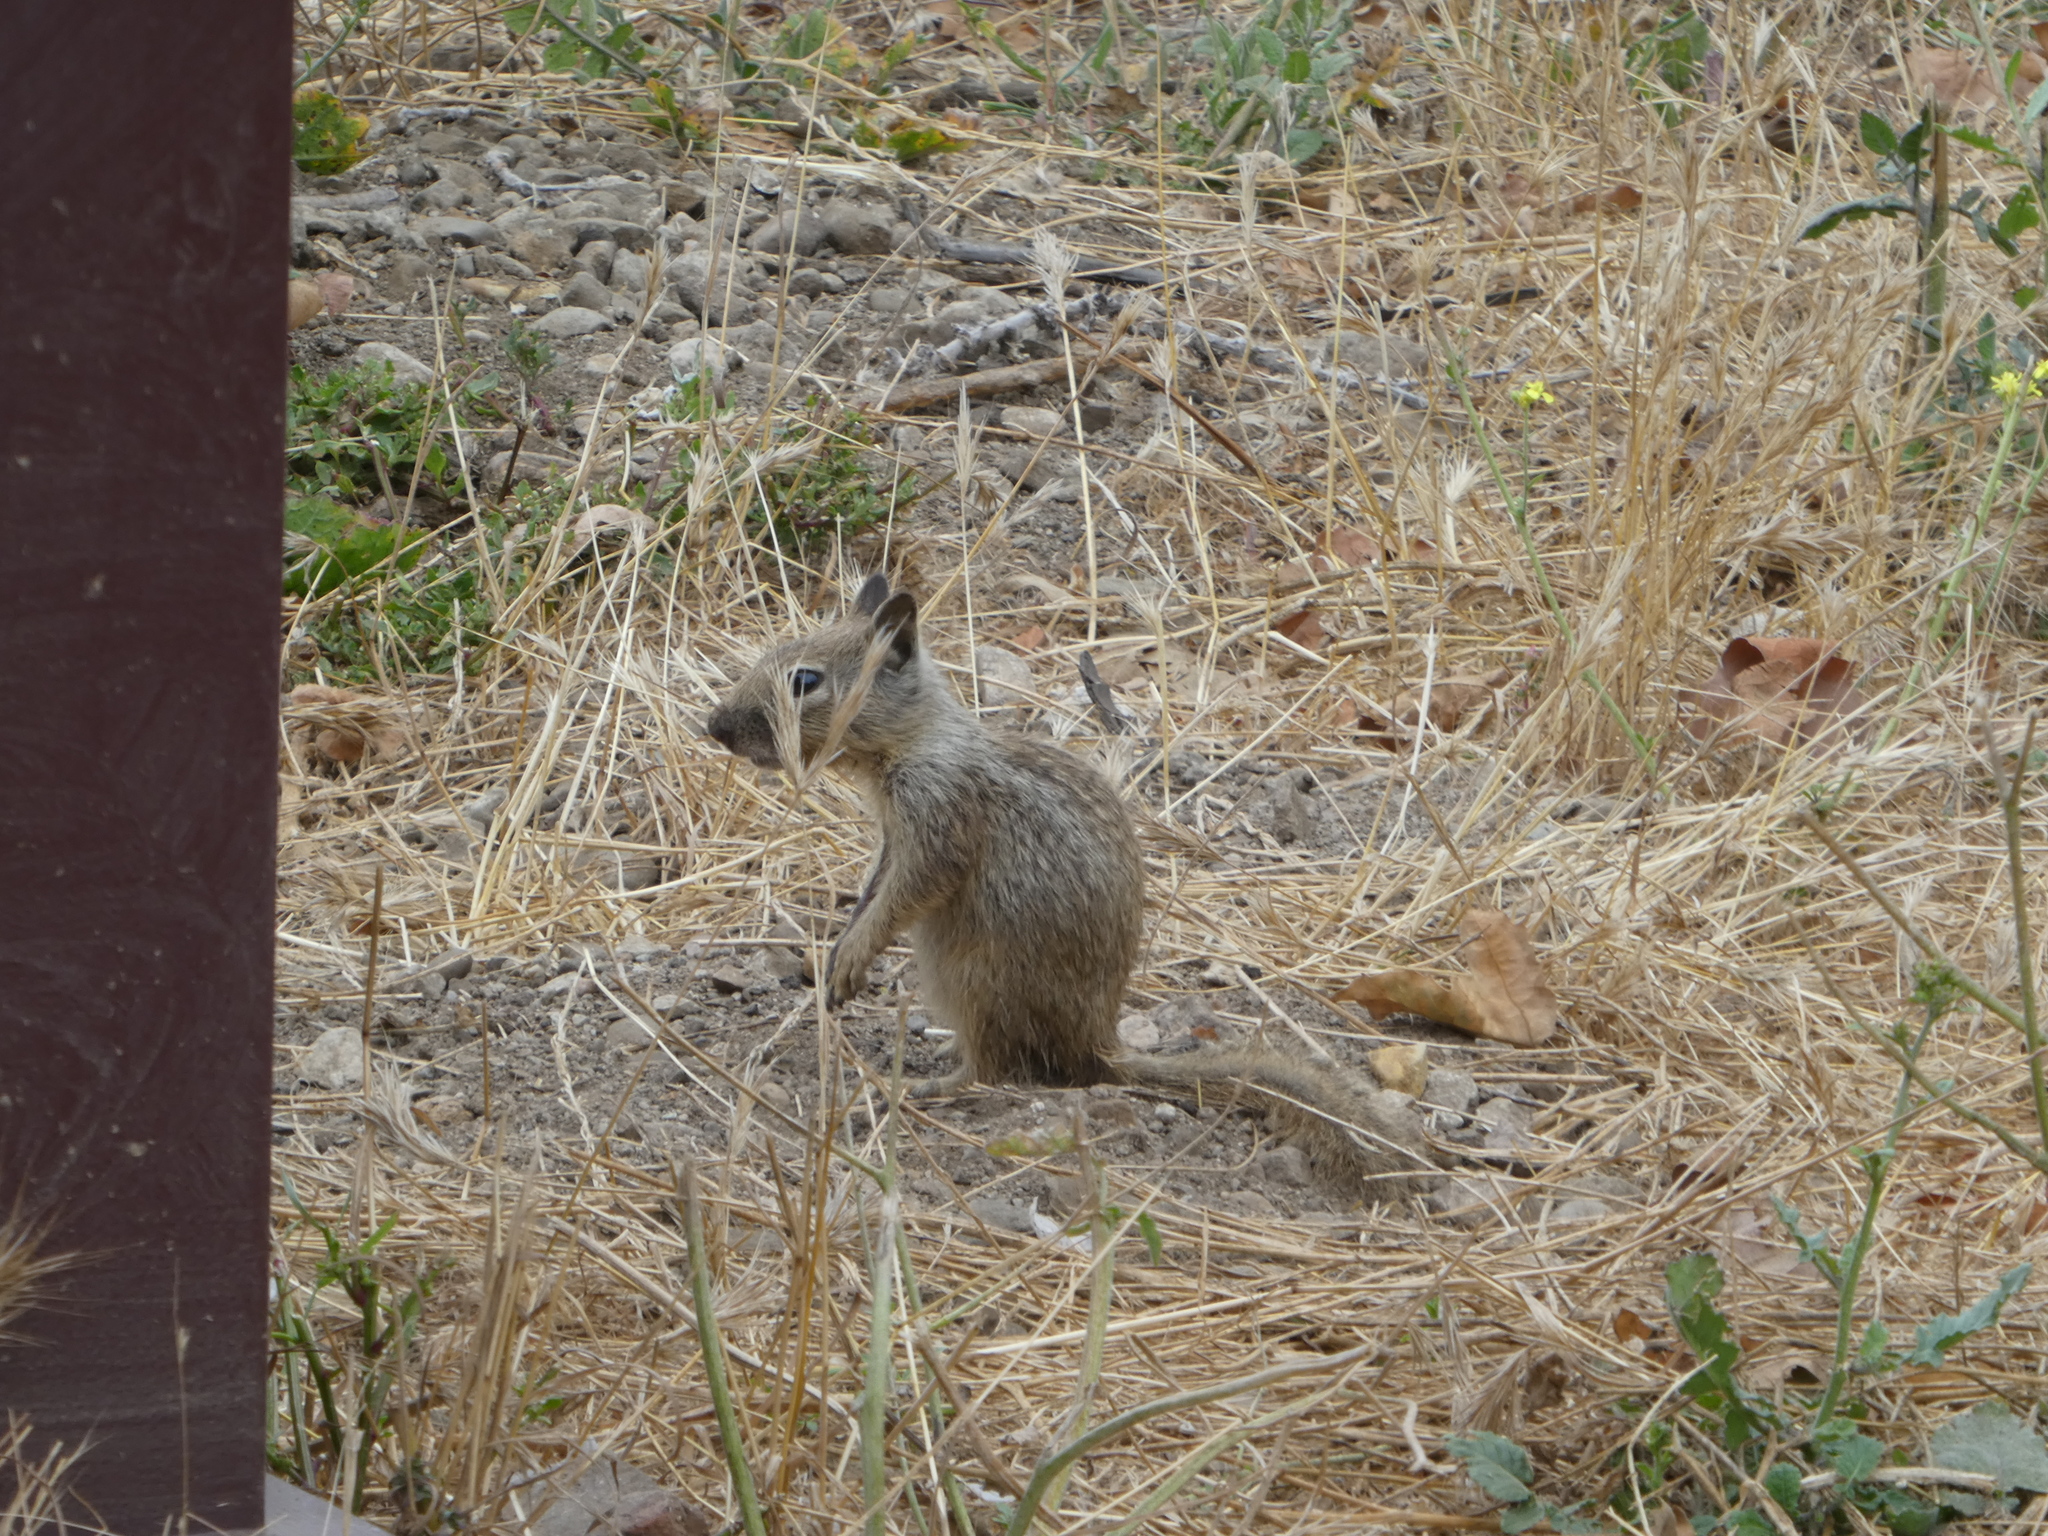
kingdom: Animalia
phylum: Chordata
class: Mammalia
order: Rodentia
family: Sciuridae
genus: Otospermophilus
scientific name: Otospermophilus beecheyi
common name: California ground squirrel
